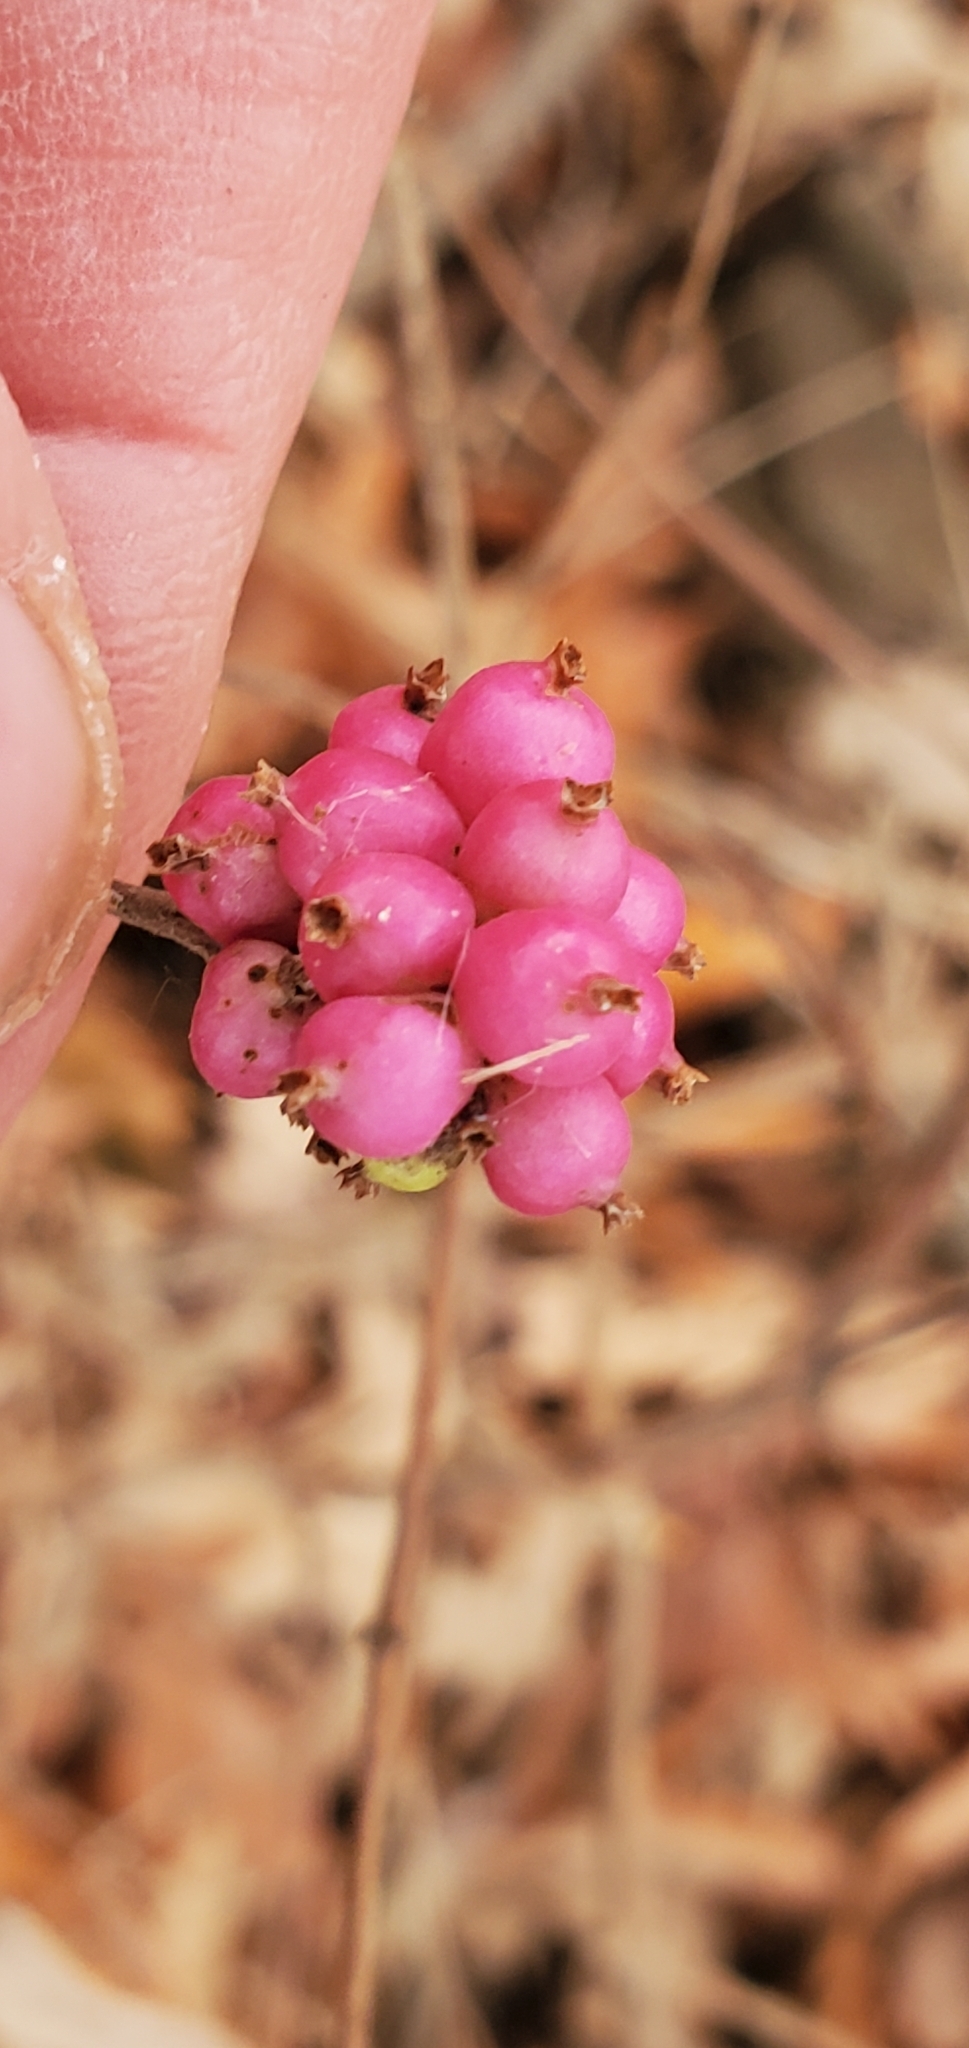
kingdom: Plantae
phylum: Tracheophyta
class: Magnoliopsida
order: Dipsacales
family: Caprifoliaceae
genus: Symphoricarpos
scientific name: Symphoricarpos orbiculatus
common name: Coralberry
